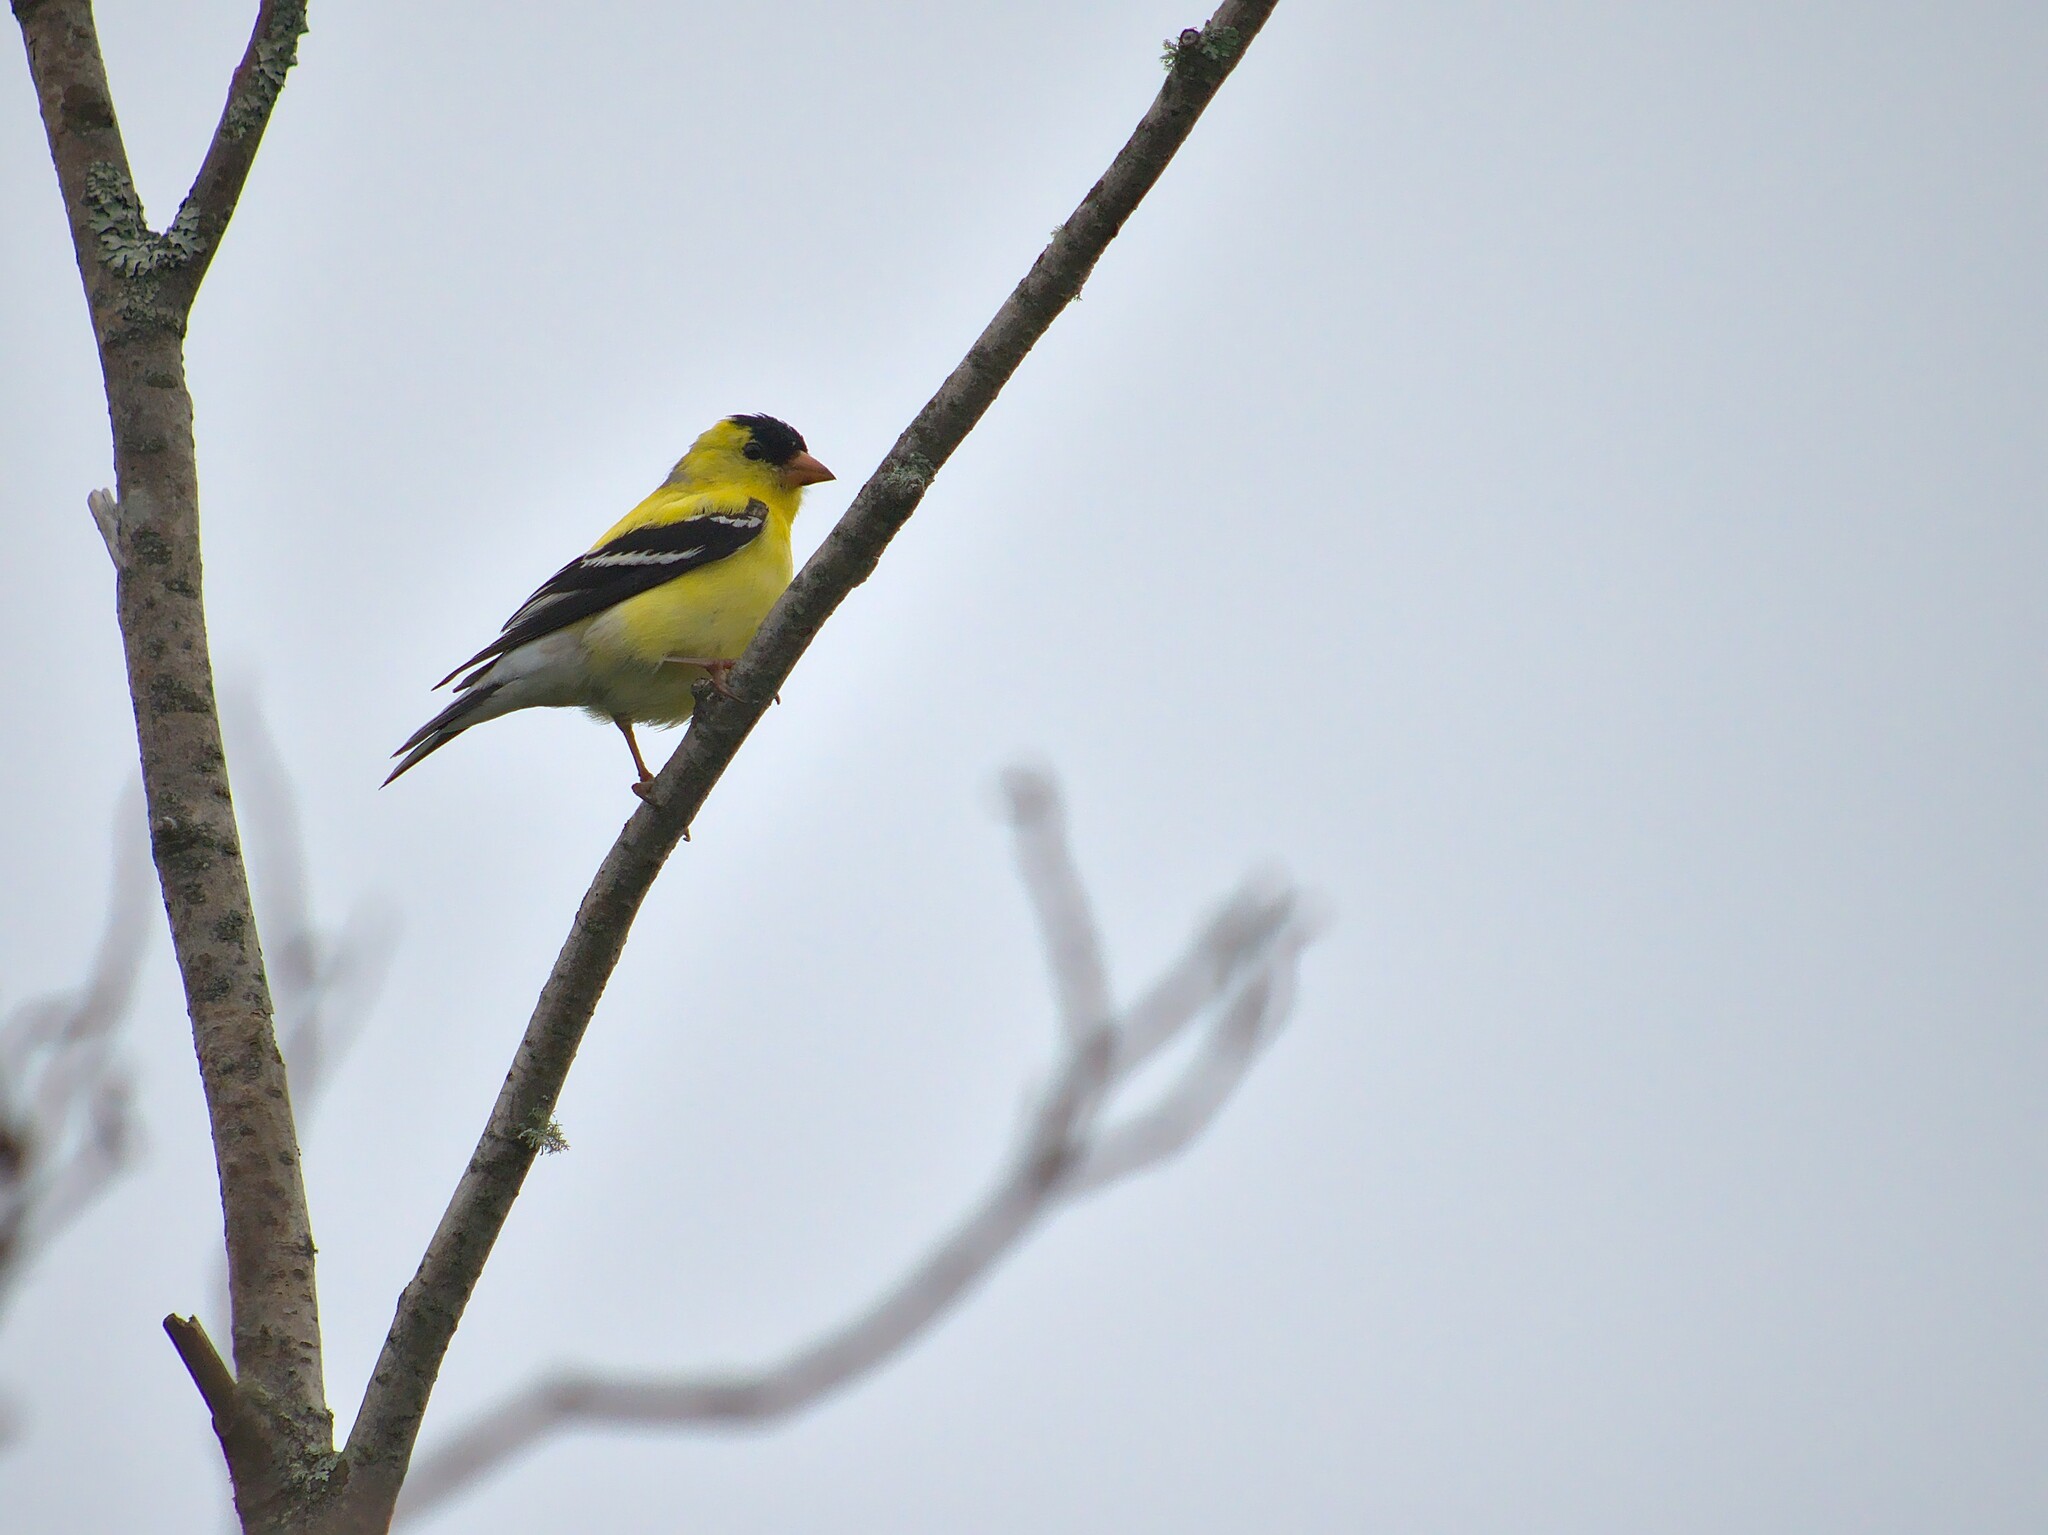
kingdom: Animalia
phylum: Chordata
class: Aves
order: Passeriformes
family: Fringillidae
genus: Spinus
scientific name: Spinus tristis
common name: American goldfinch
